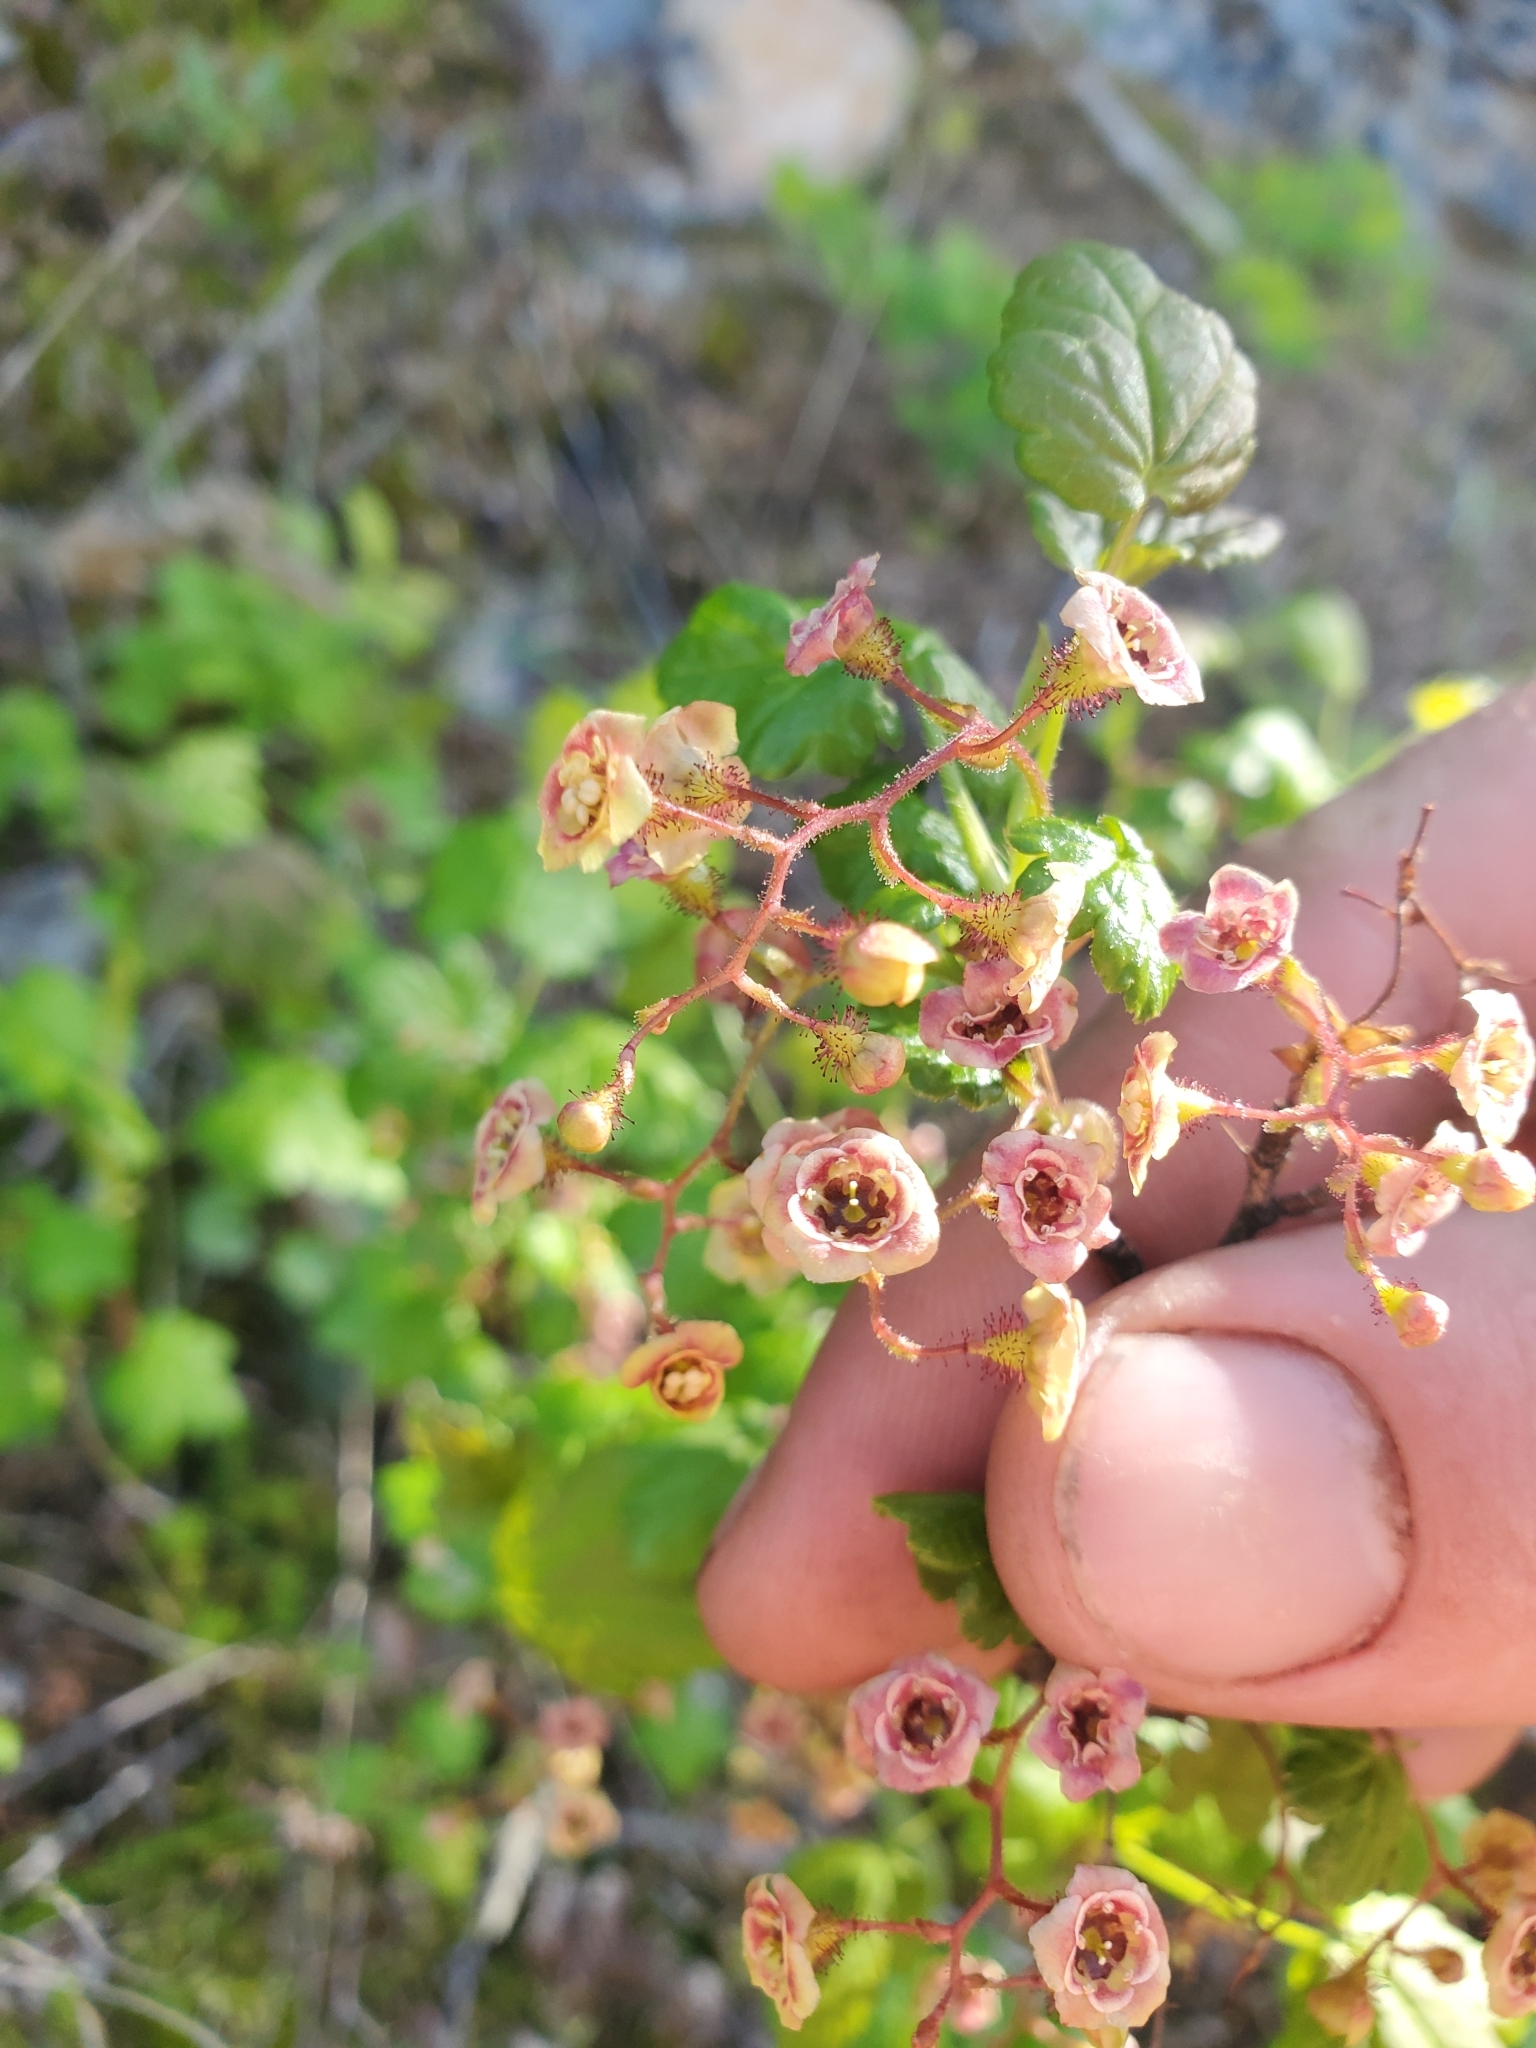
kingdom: Plantae
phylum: Tracheophyta
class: Magnoliopsida
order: Saxifragales
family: Grossulariaceae
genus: Ribes
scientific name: Ribes lacustre
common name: Black gooseberry
